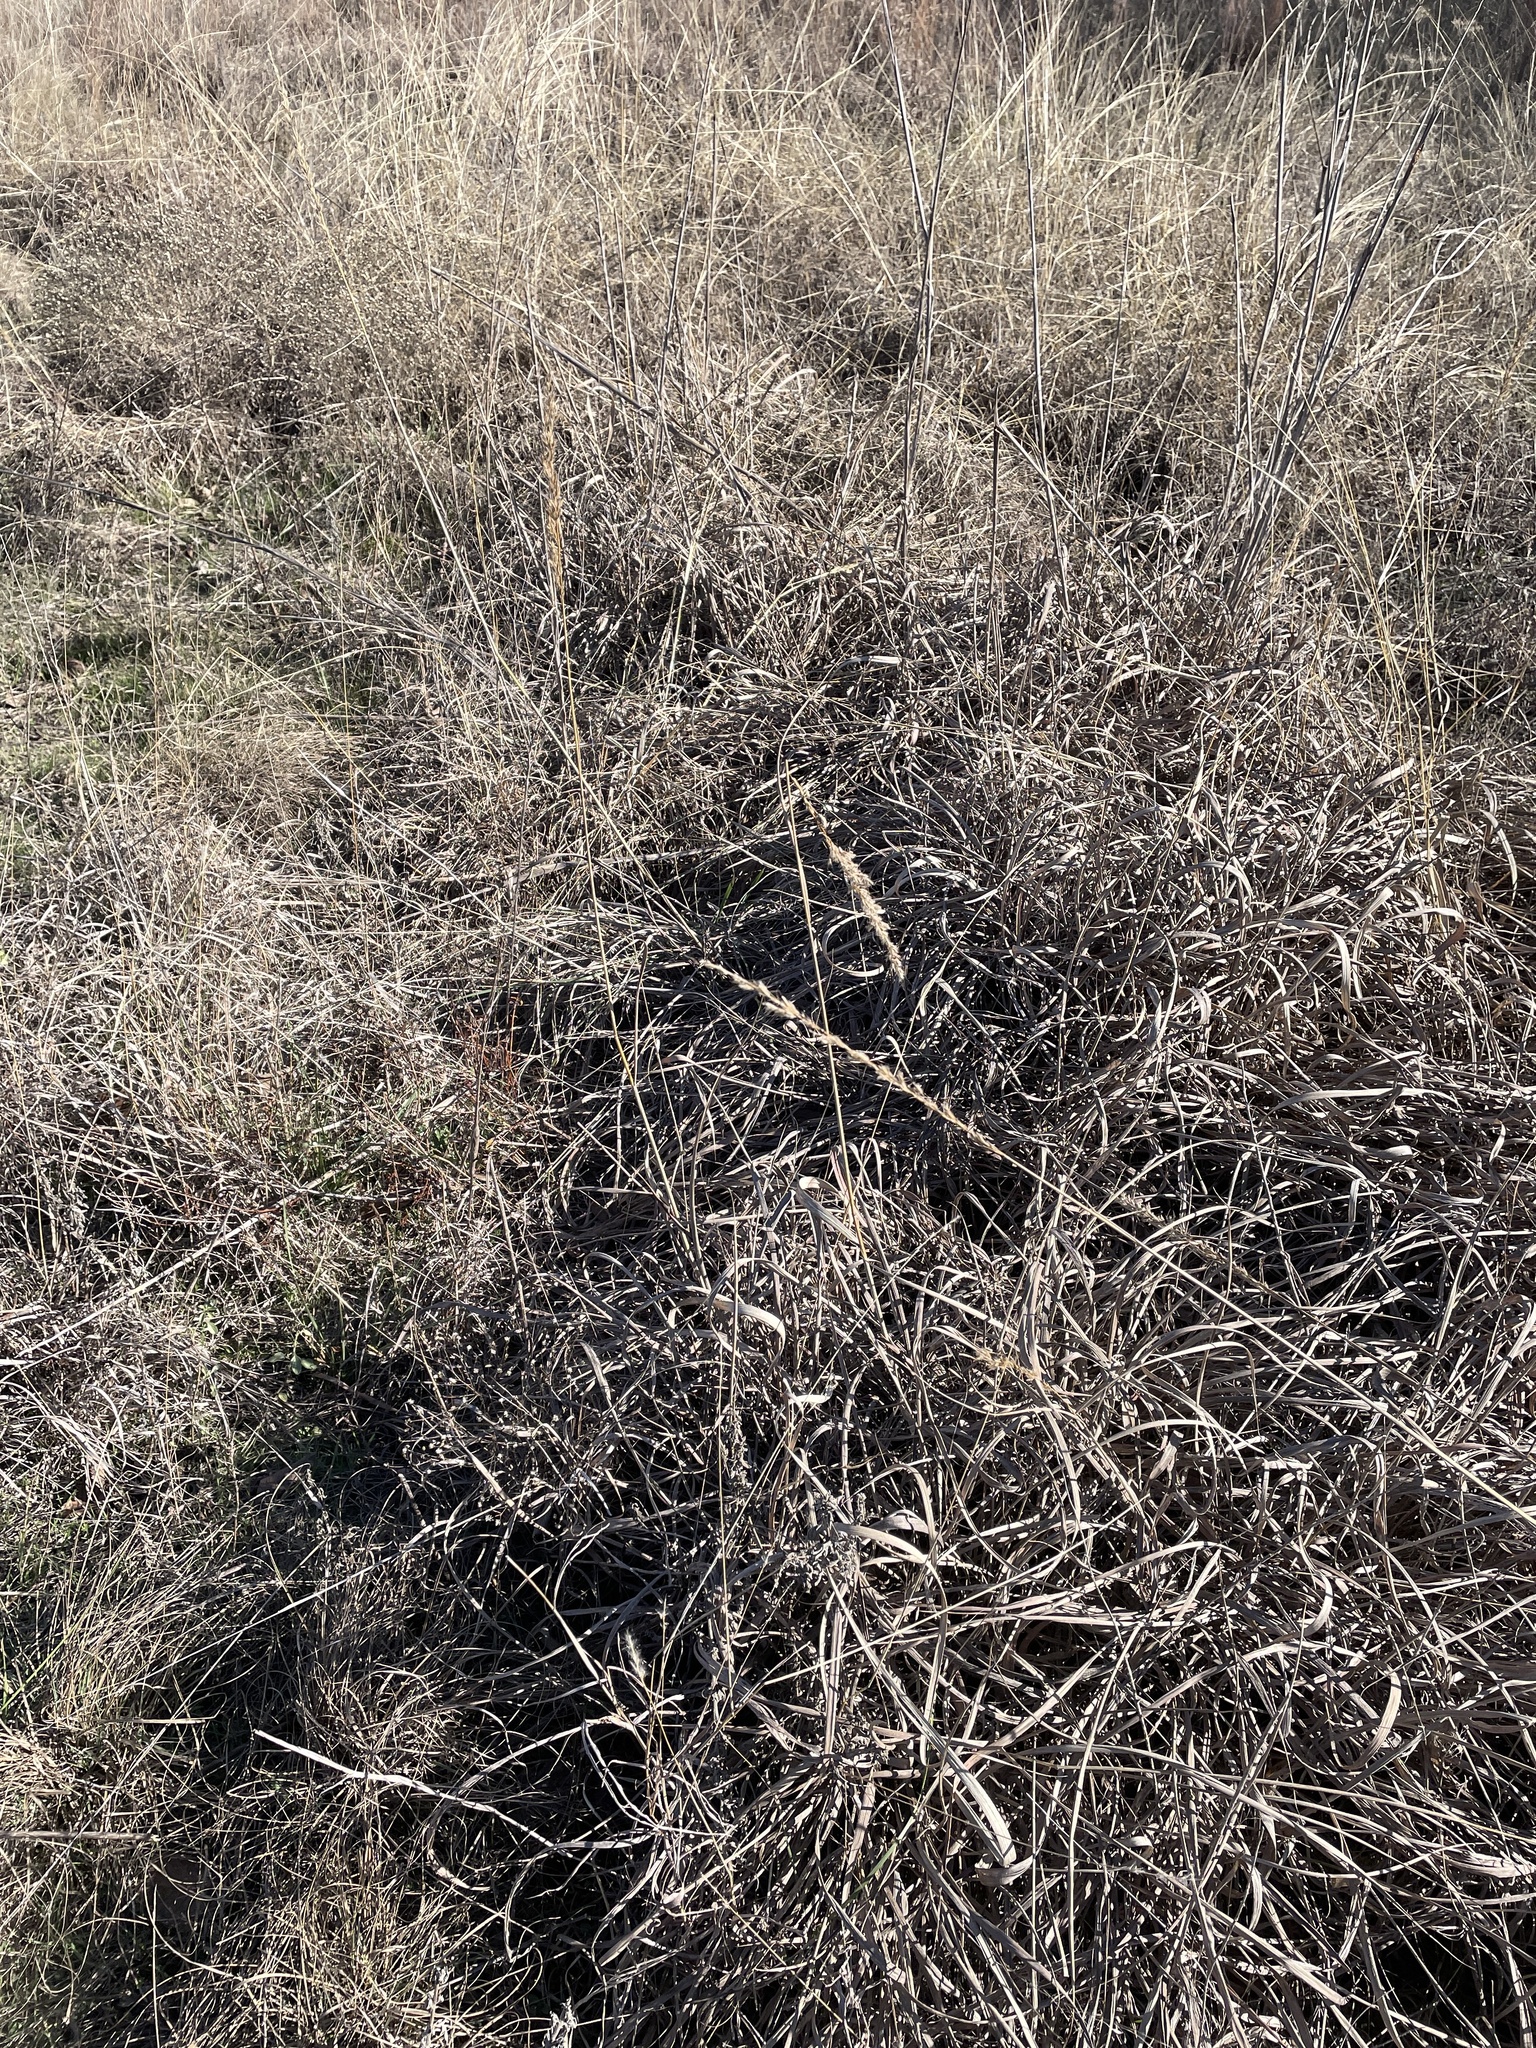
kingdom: Plantae
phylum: Tracheophyta
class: Liliopsida
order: Poales
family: Poaceae
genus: Sorghastrum
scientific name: Sorghastrum nutans
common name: Indian grass
